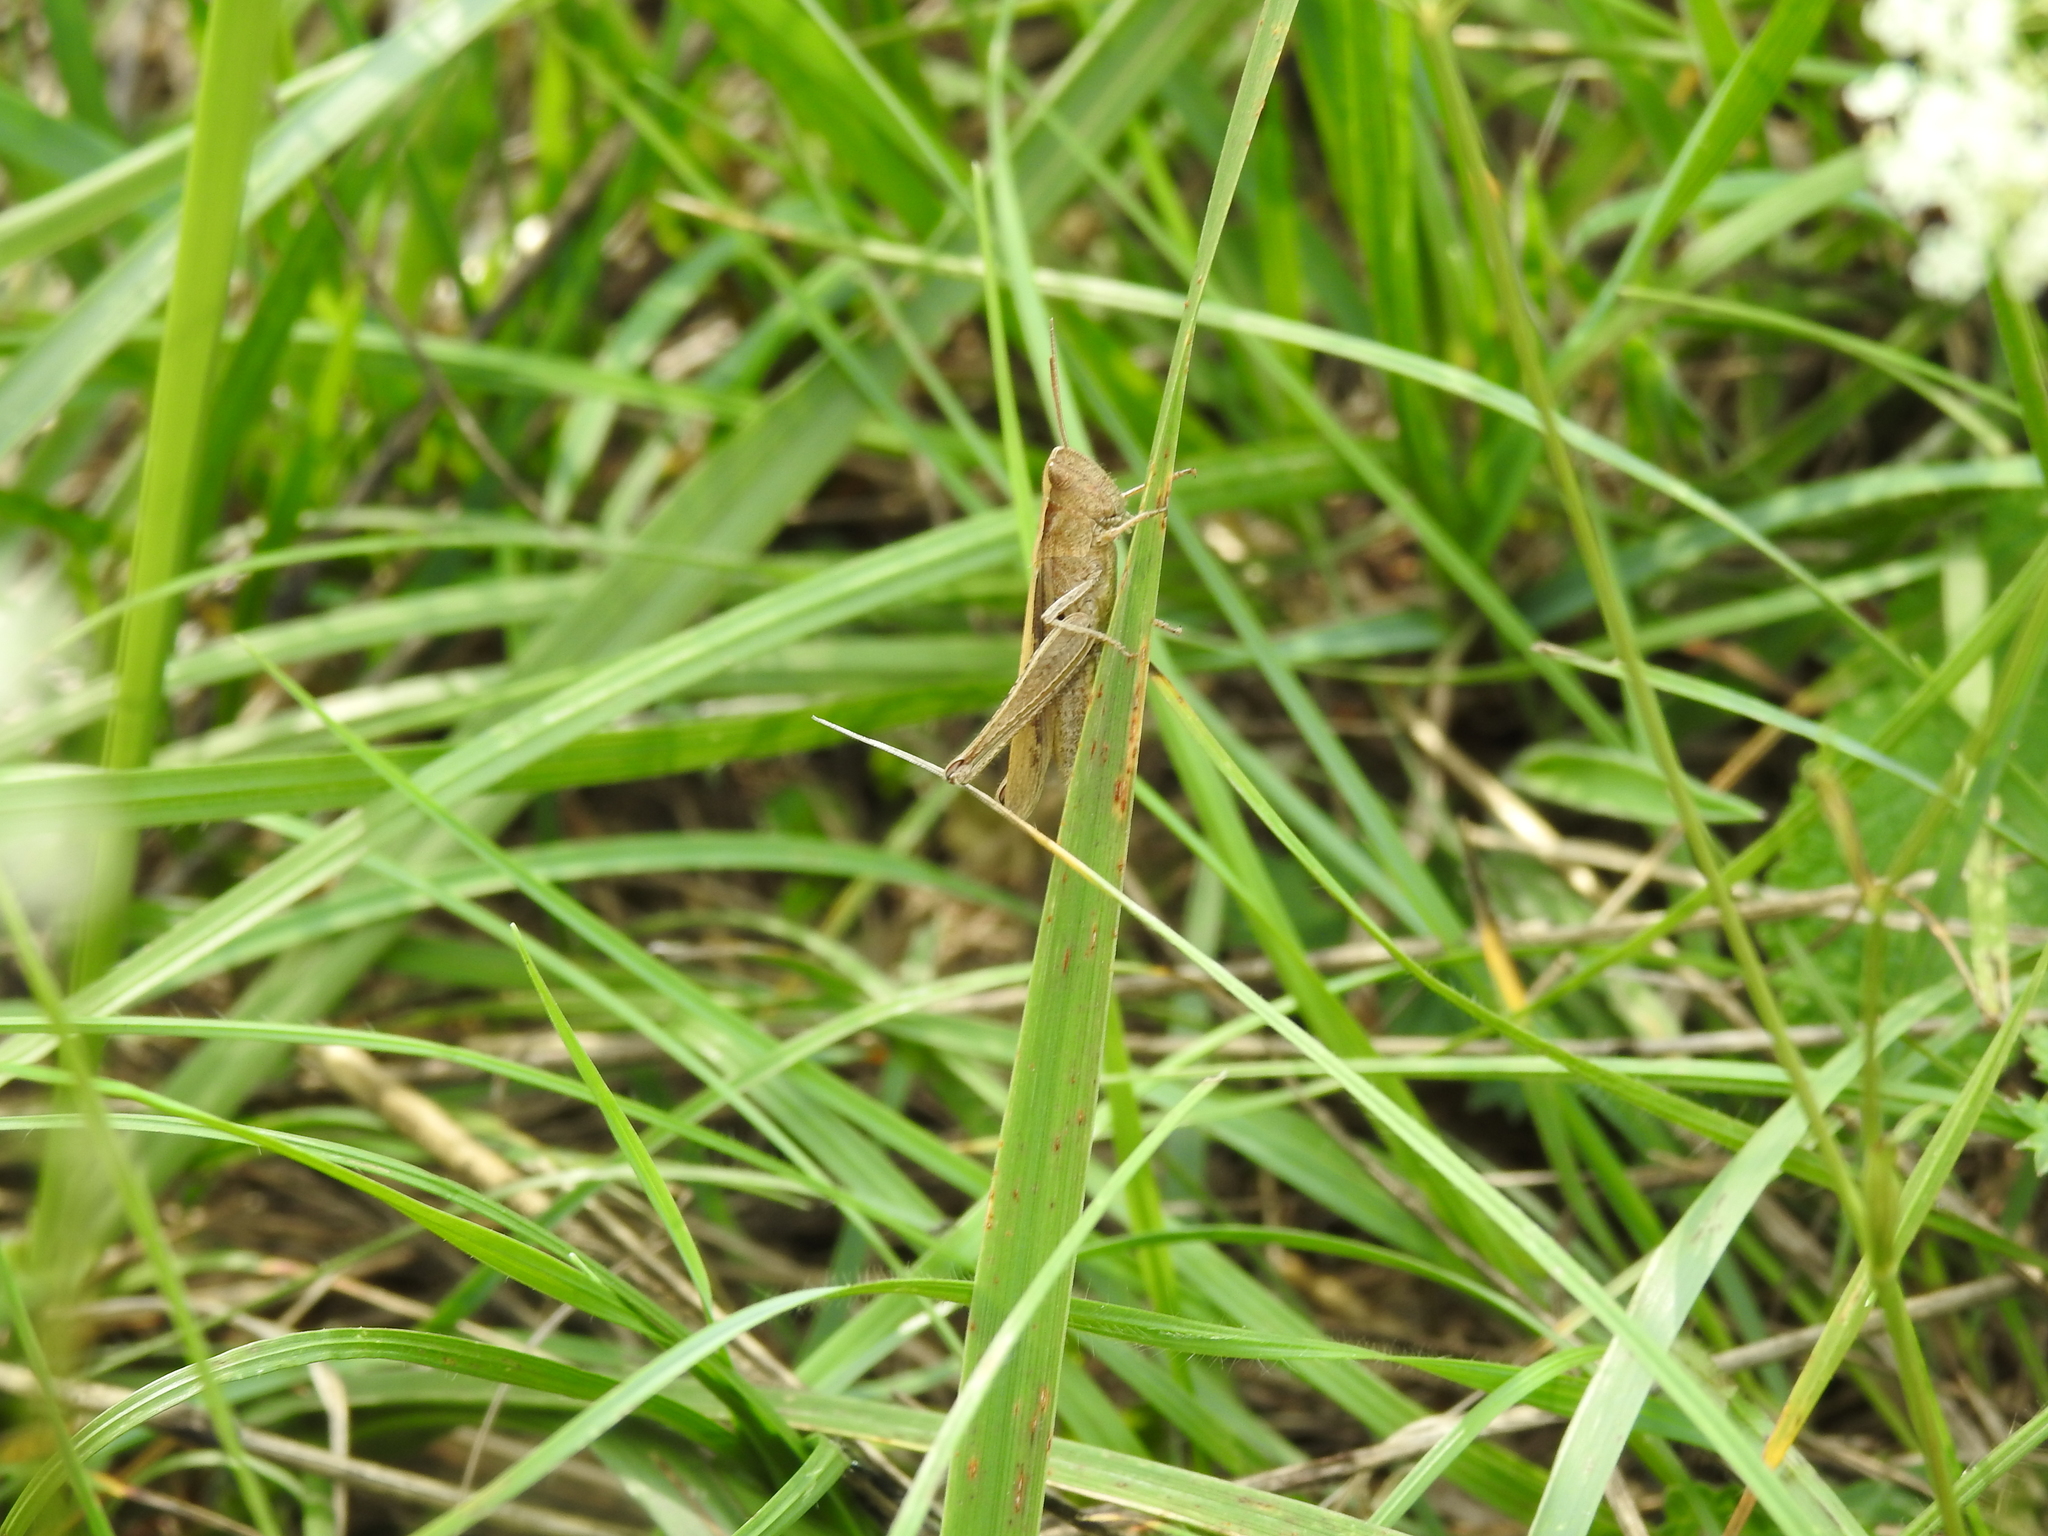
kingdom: Animalia
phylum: Arthropoda
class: Insecta
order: Orthoptera
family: Acrididae
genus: Chorthippus
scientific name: Chorthippus dorsatus
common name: Steppe grasshopper
